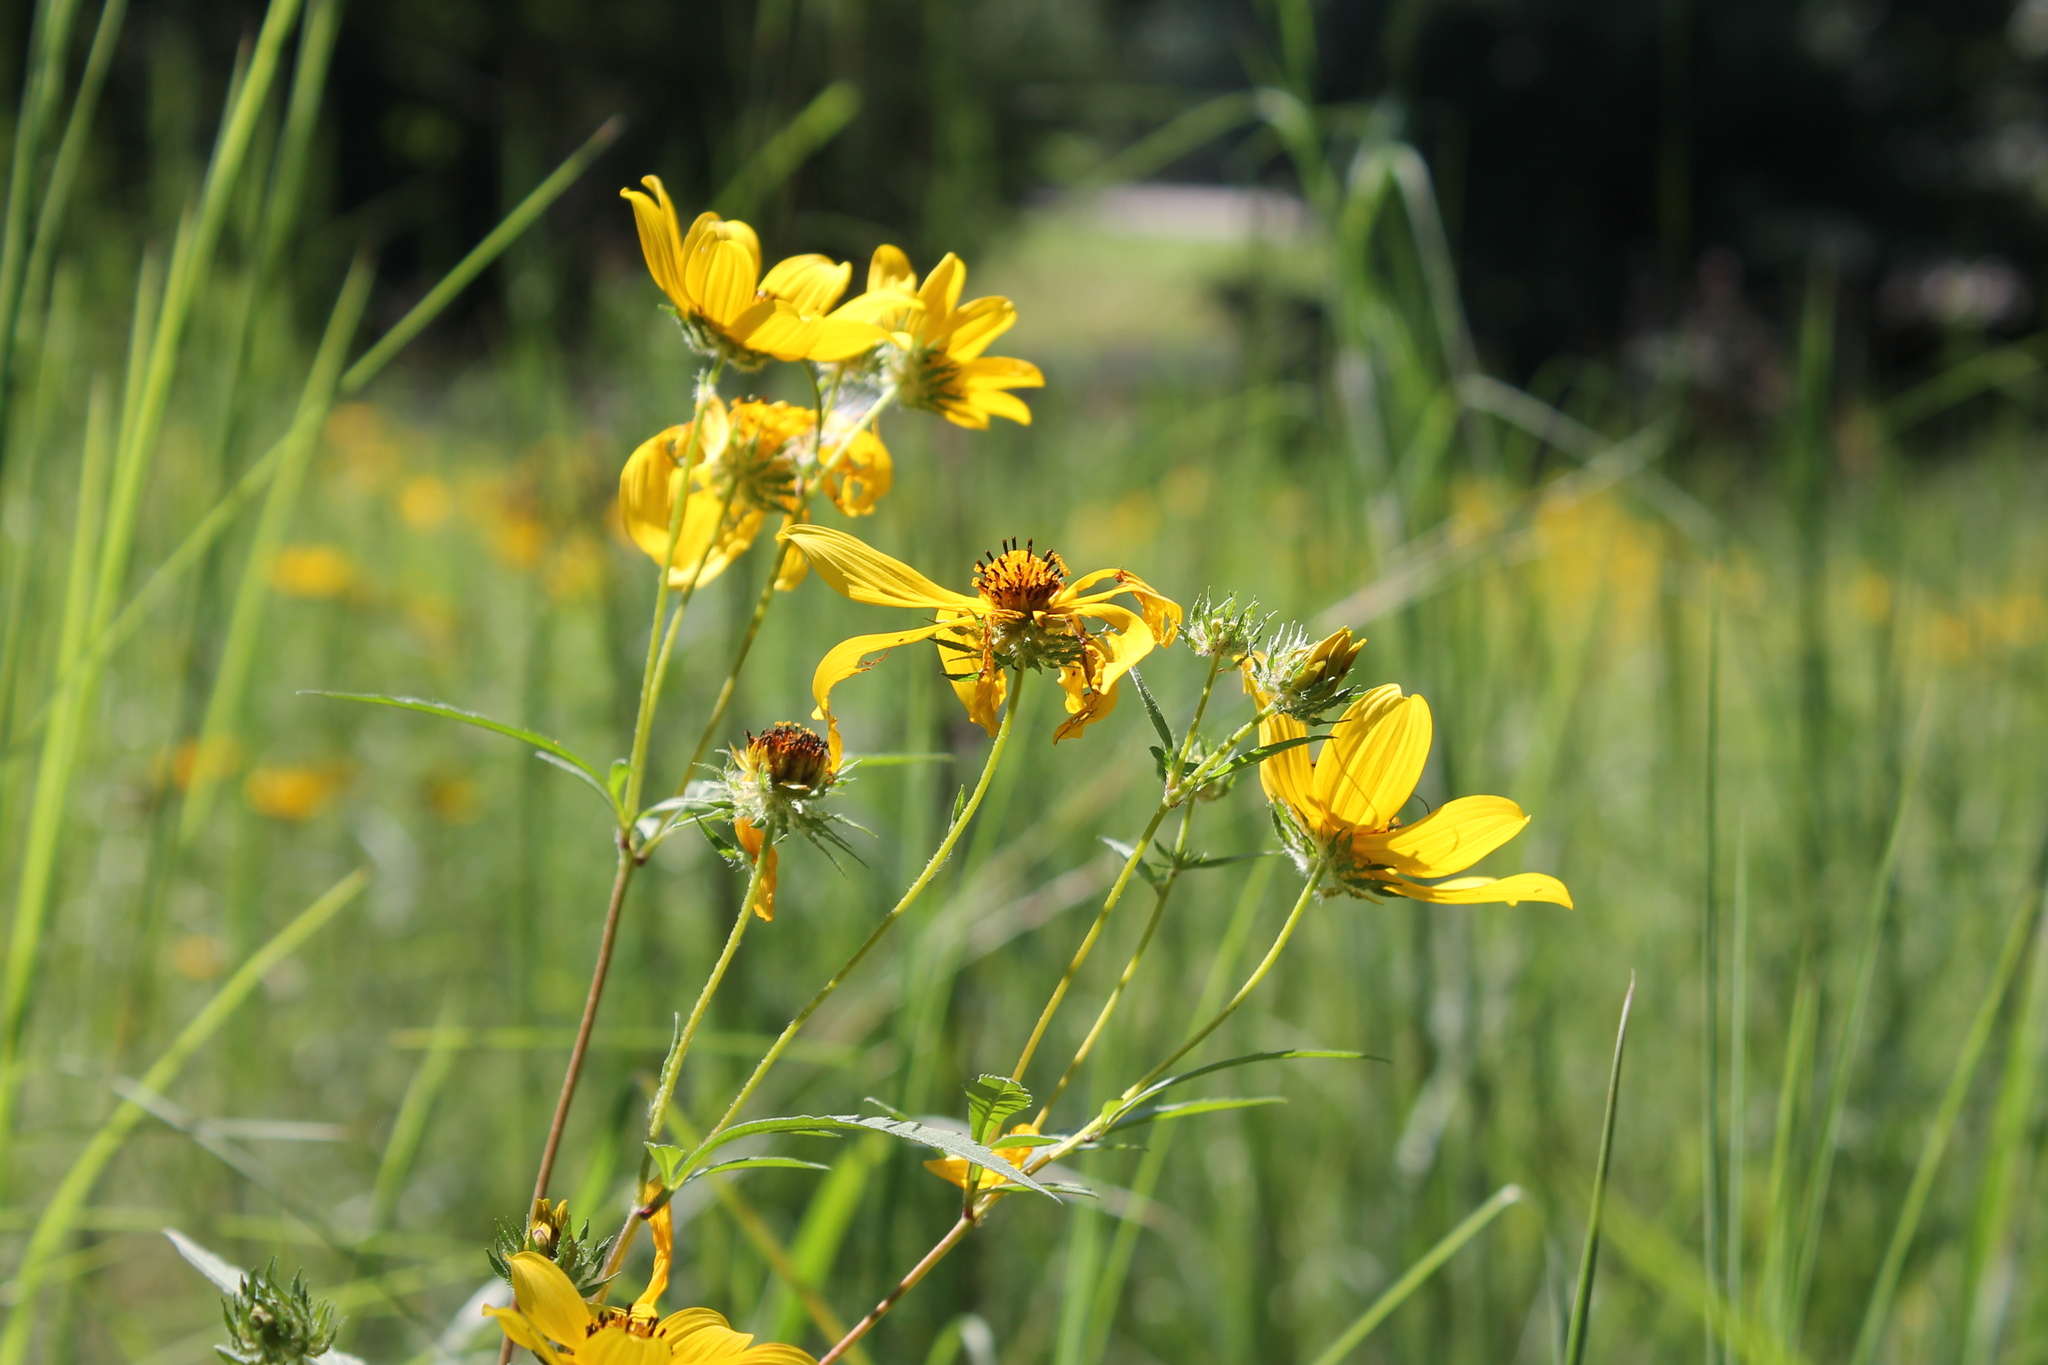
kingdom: Plantae
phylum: Tracheophyta
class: Magnoliopsida
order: Asterales
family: Asteraceae
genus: Bidens
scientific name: Bidens polylepis
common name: Awnless beggarticks
